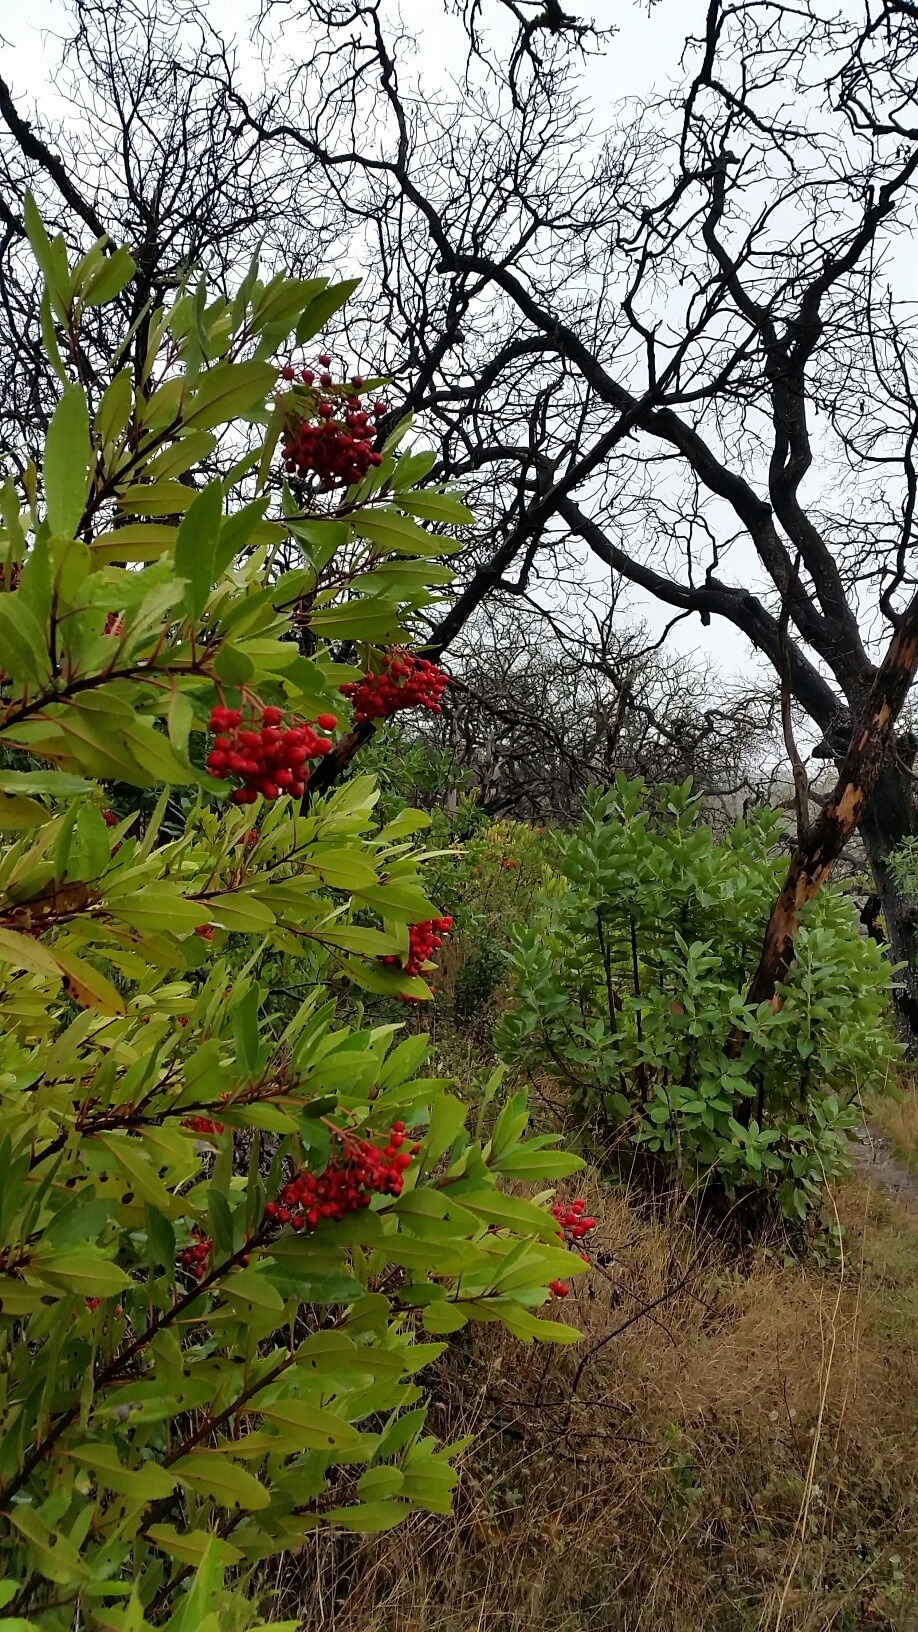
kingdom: Plantae
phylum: Tracheophyta
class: Magnoliopsida
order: Rosales
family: Rosaceae
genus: Heteromeles
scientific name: Heteromeles arbutifolia
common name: California-holly
